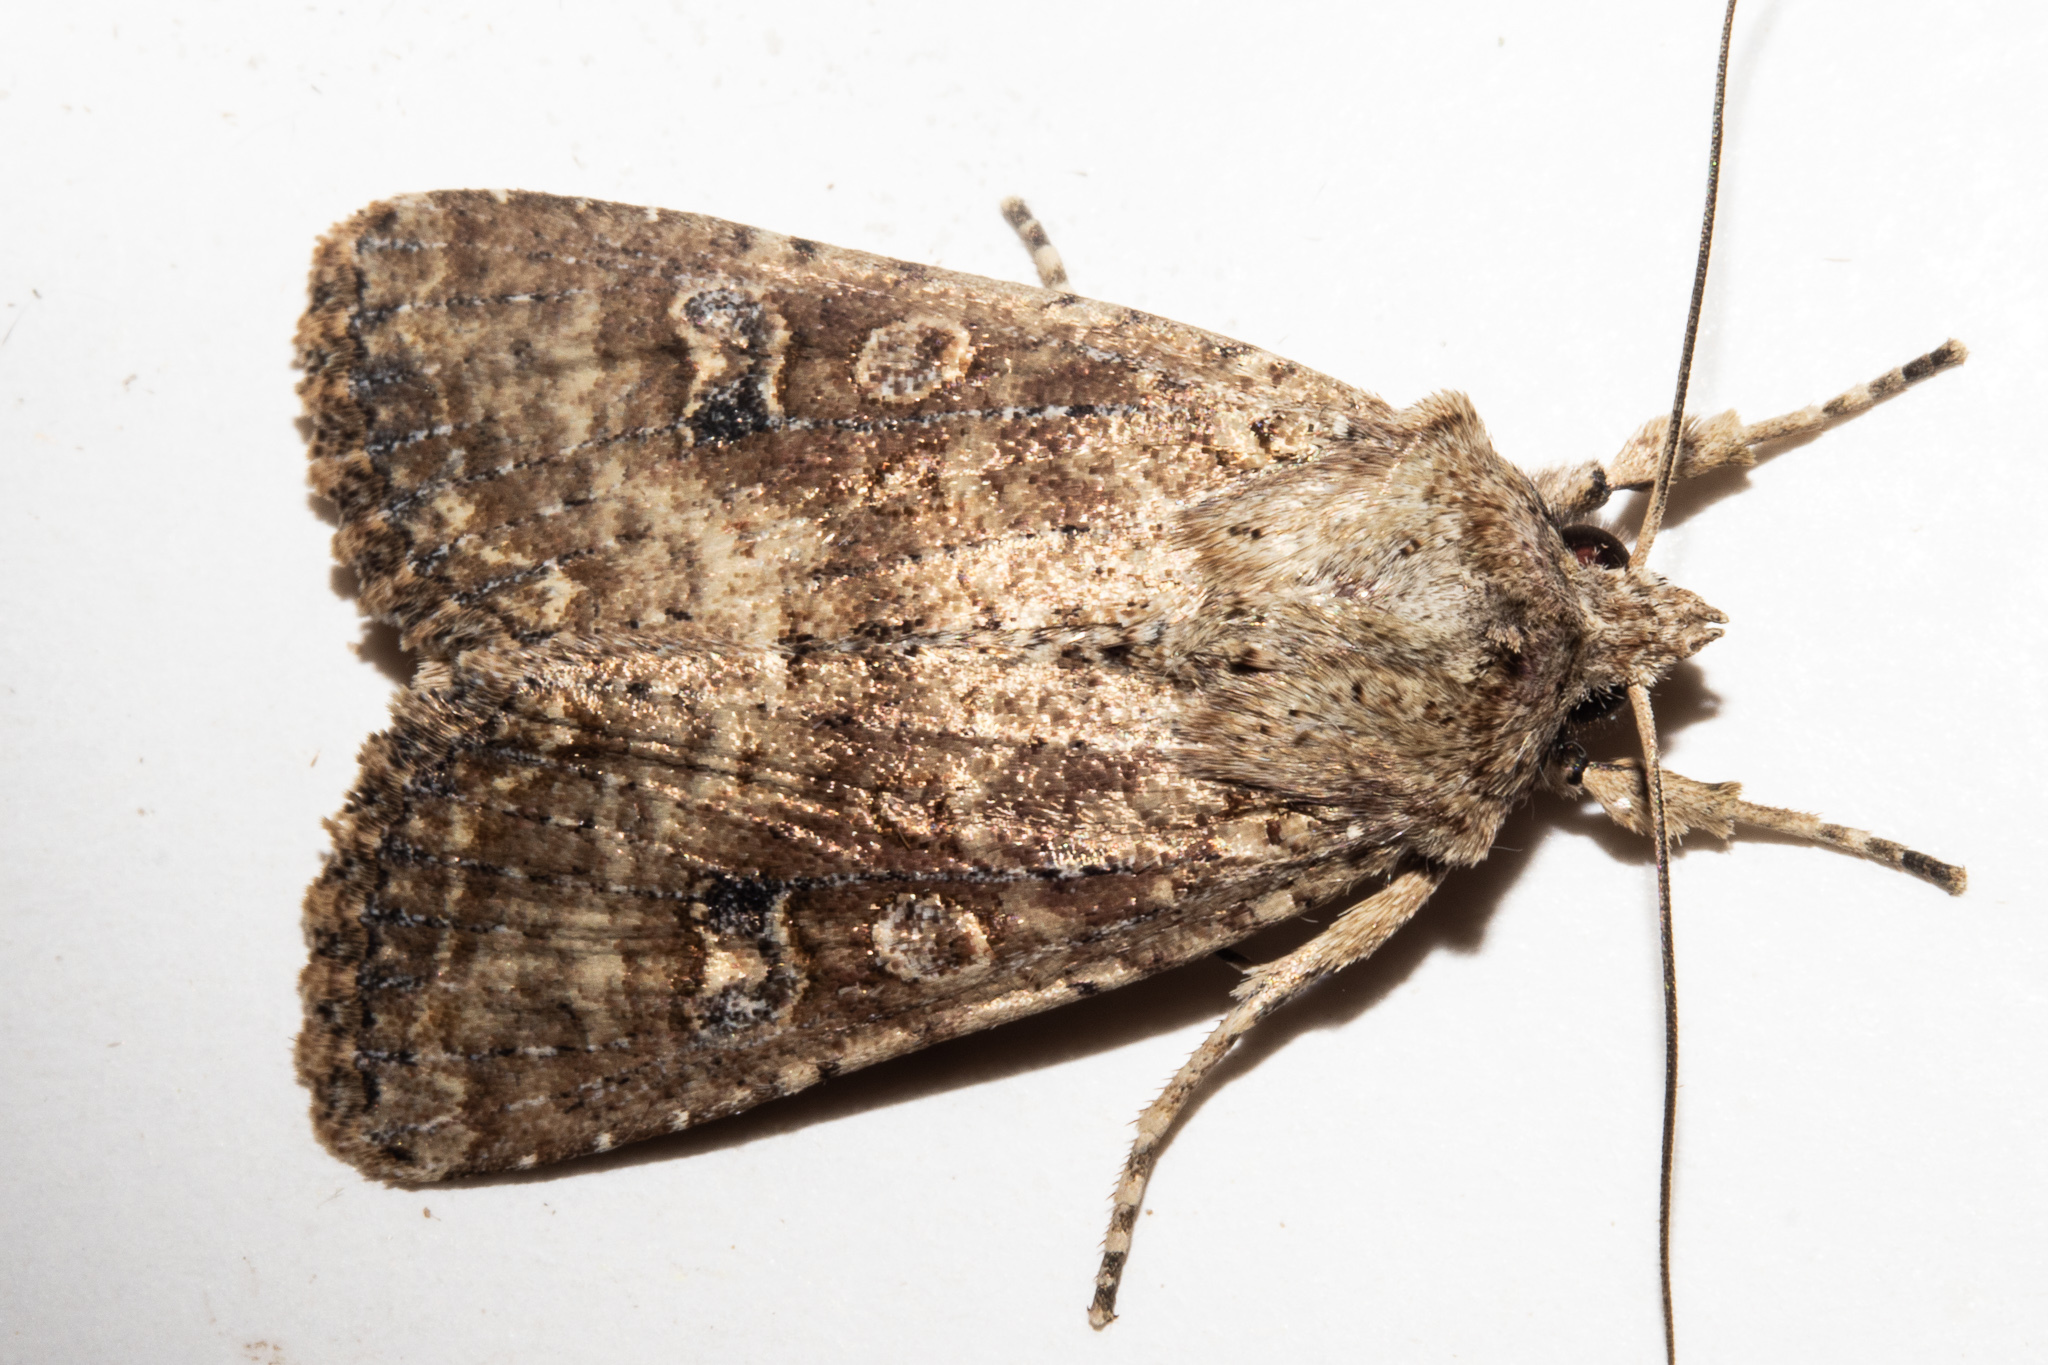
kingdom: Animalia
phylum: Arthropoda
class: Insecta
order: Lepidoptera
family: Noctuidae
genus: Ichneutica
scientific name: Ichneutica morosa
